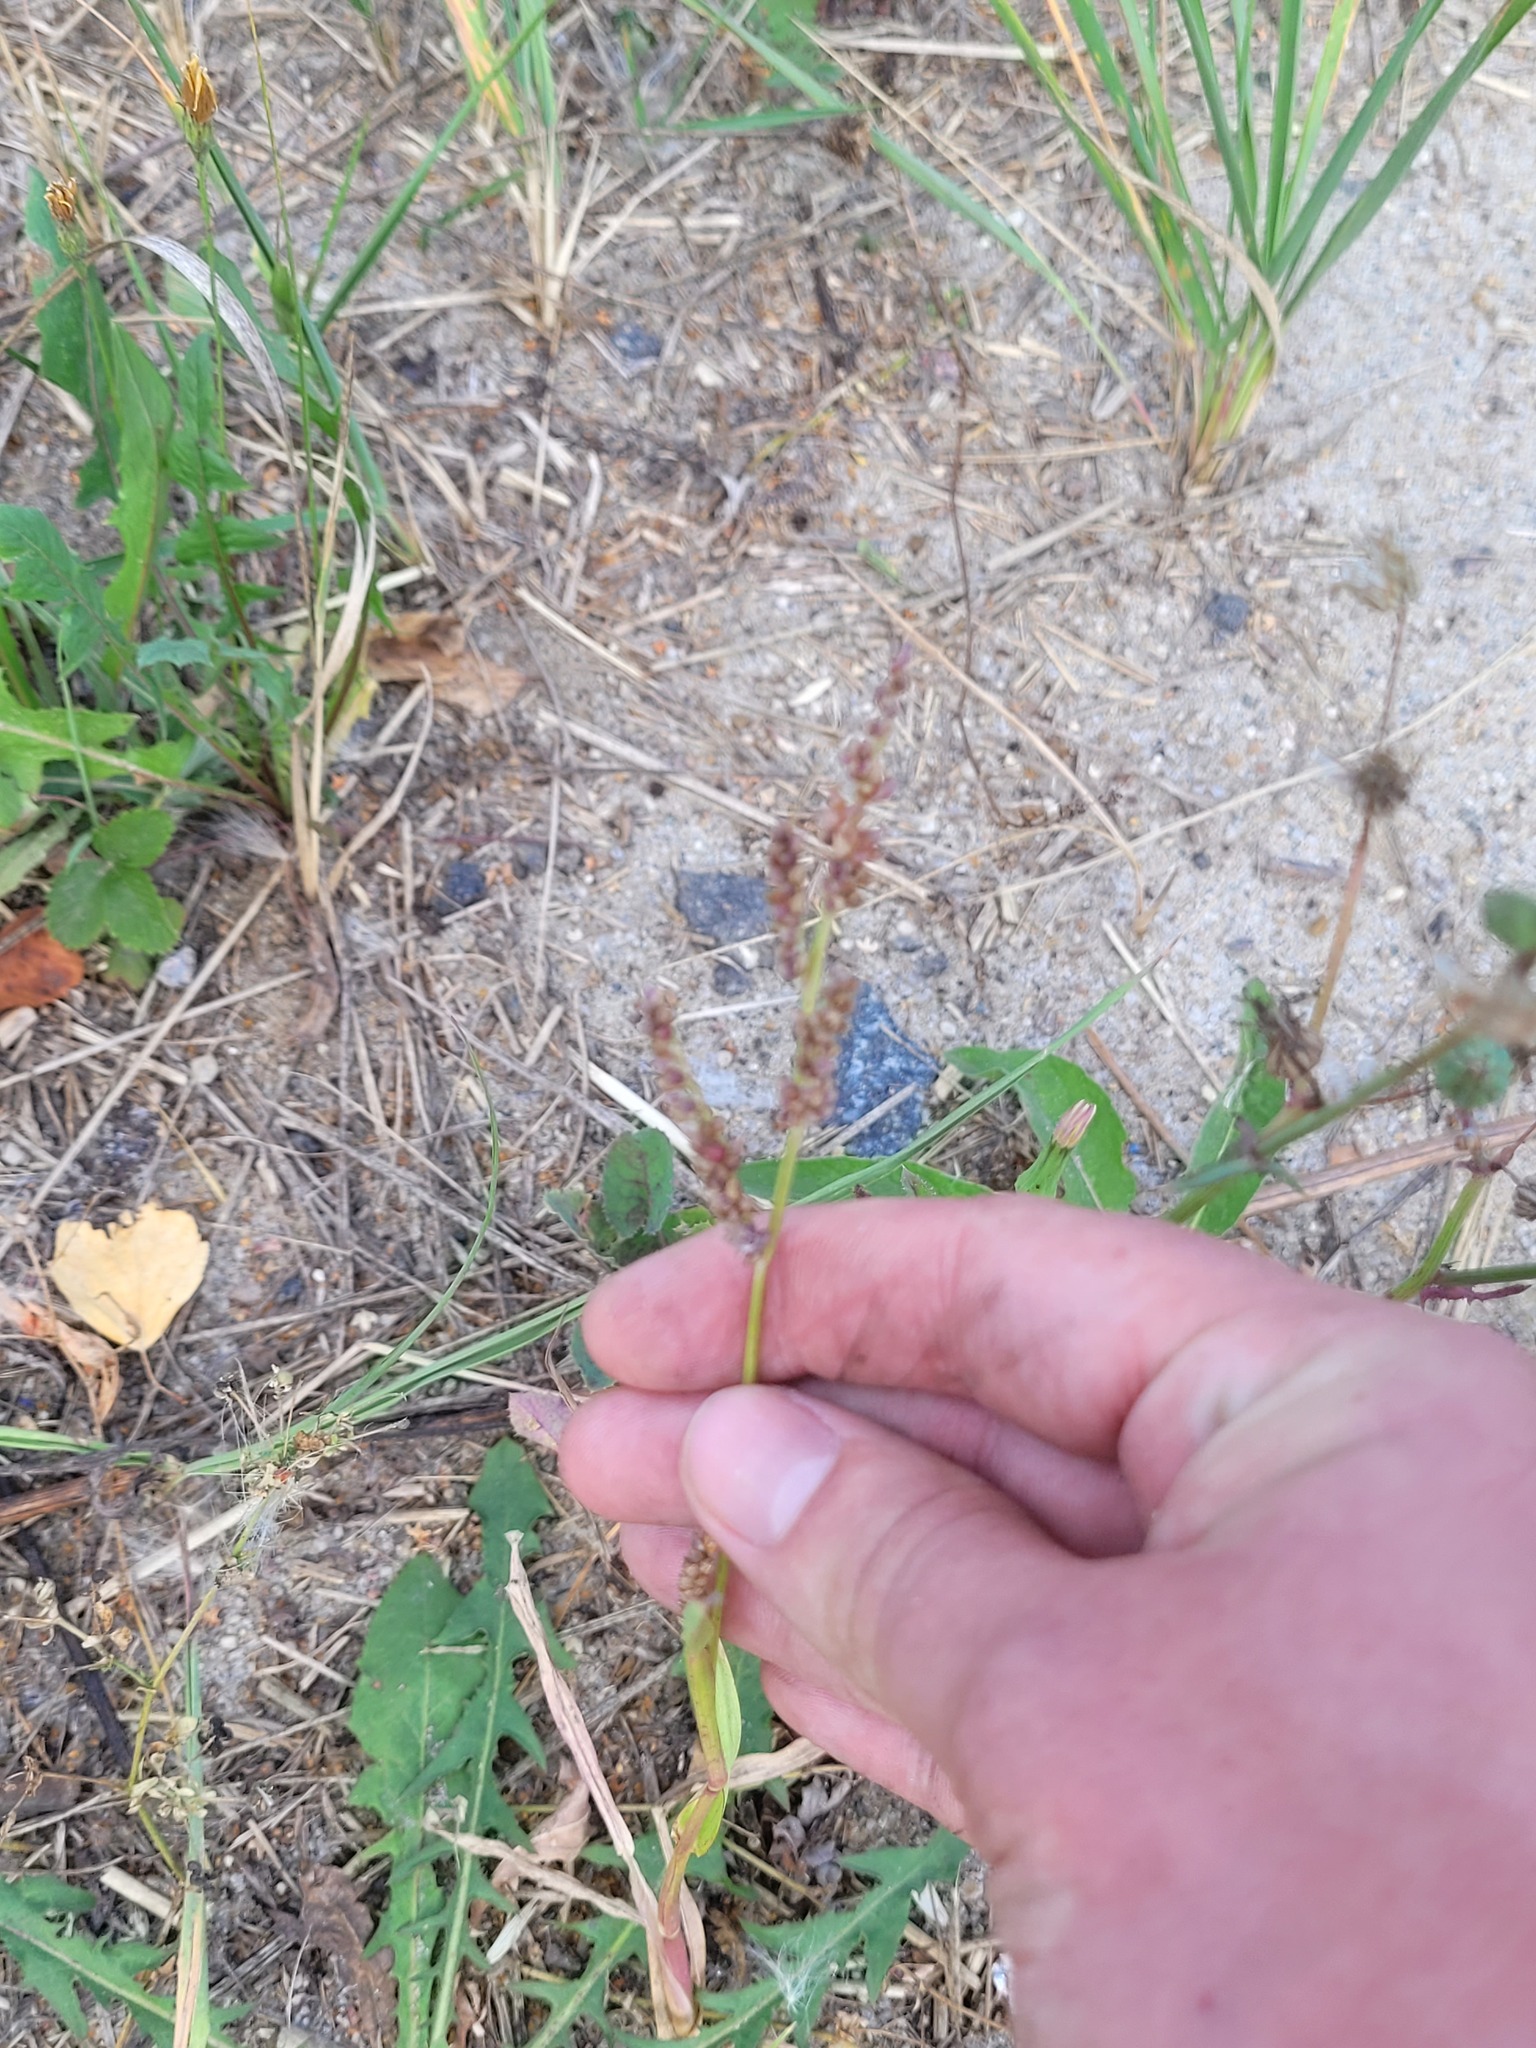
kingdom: Plantae
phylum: Tracheophyta
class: Liliopsida
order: Poales
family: Poaceae
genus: Echinochloa
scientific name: Echinochloa crus-galli
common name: Cockspur
